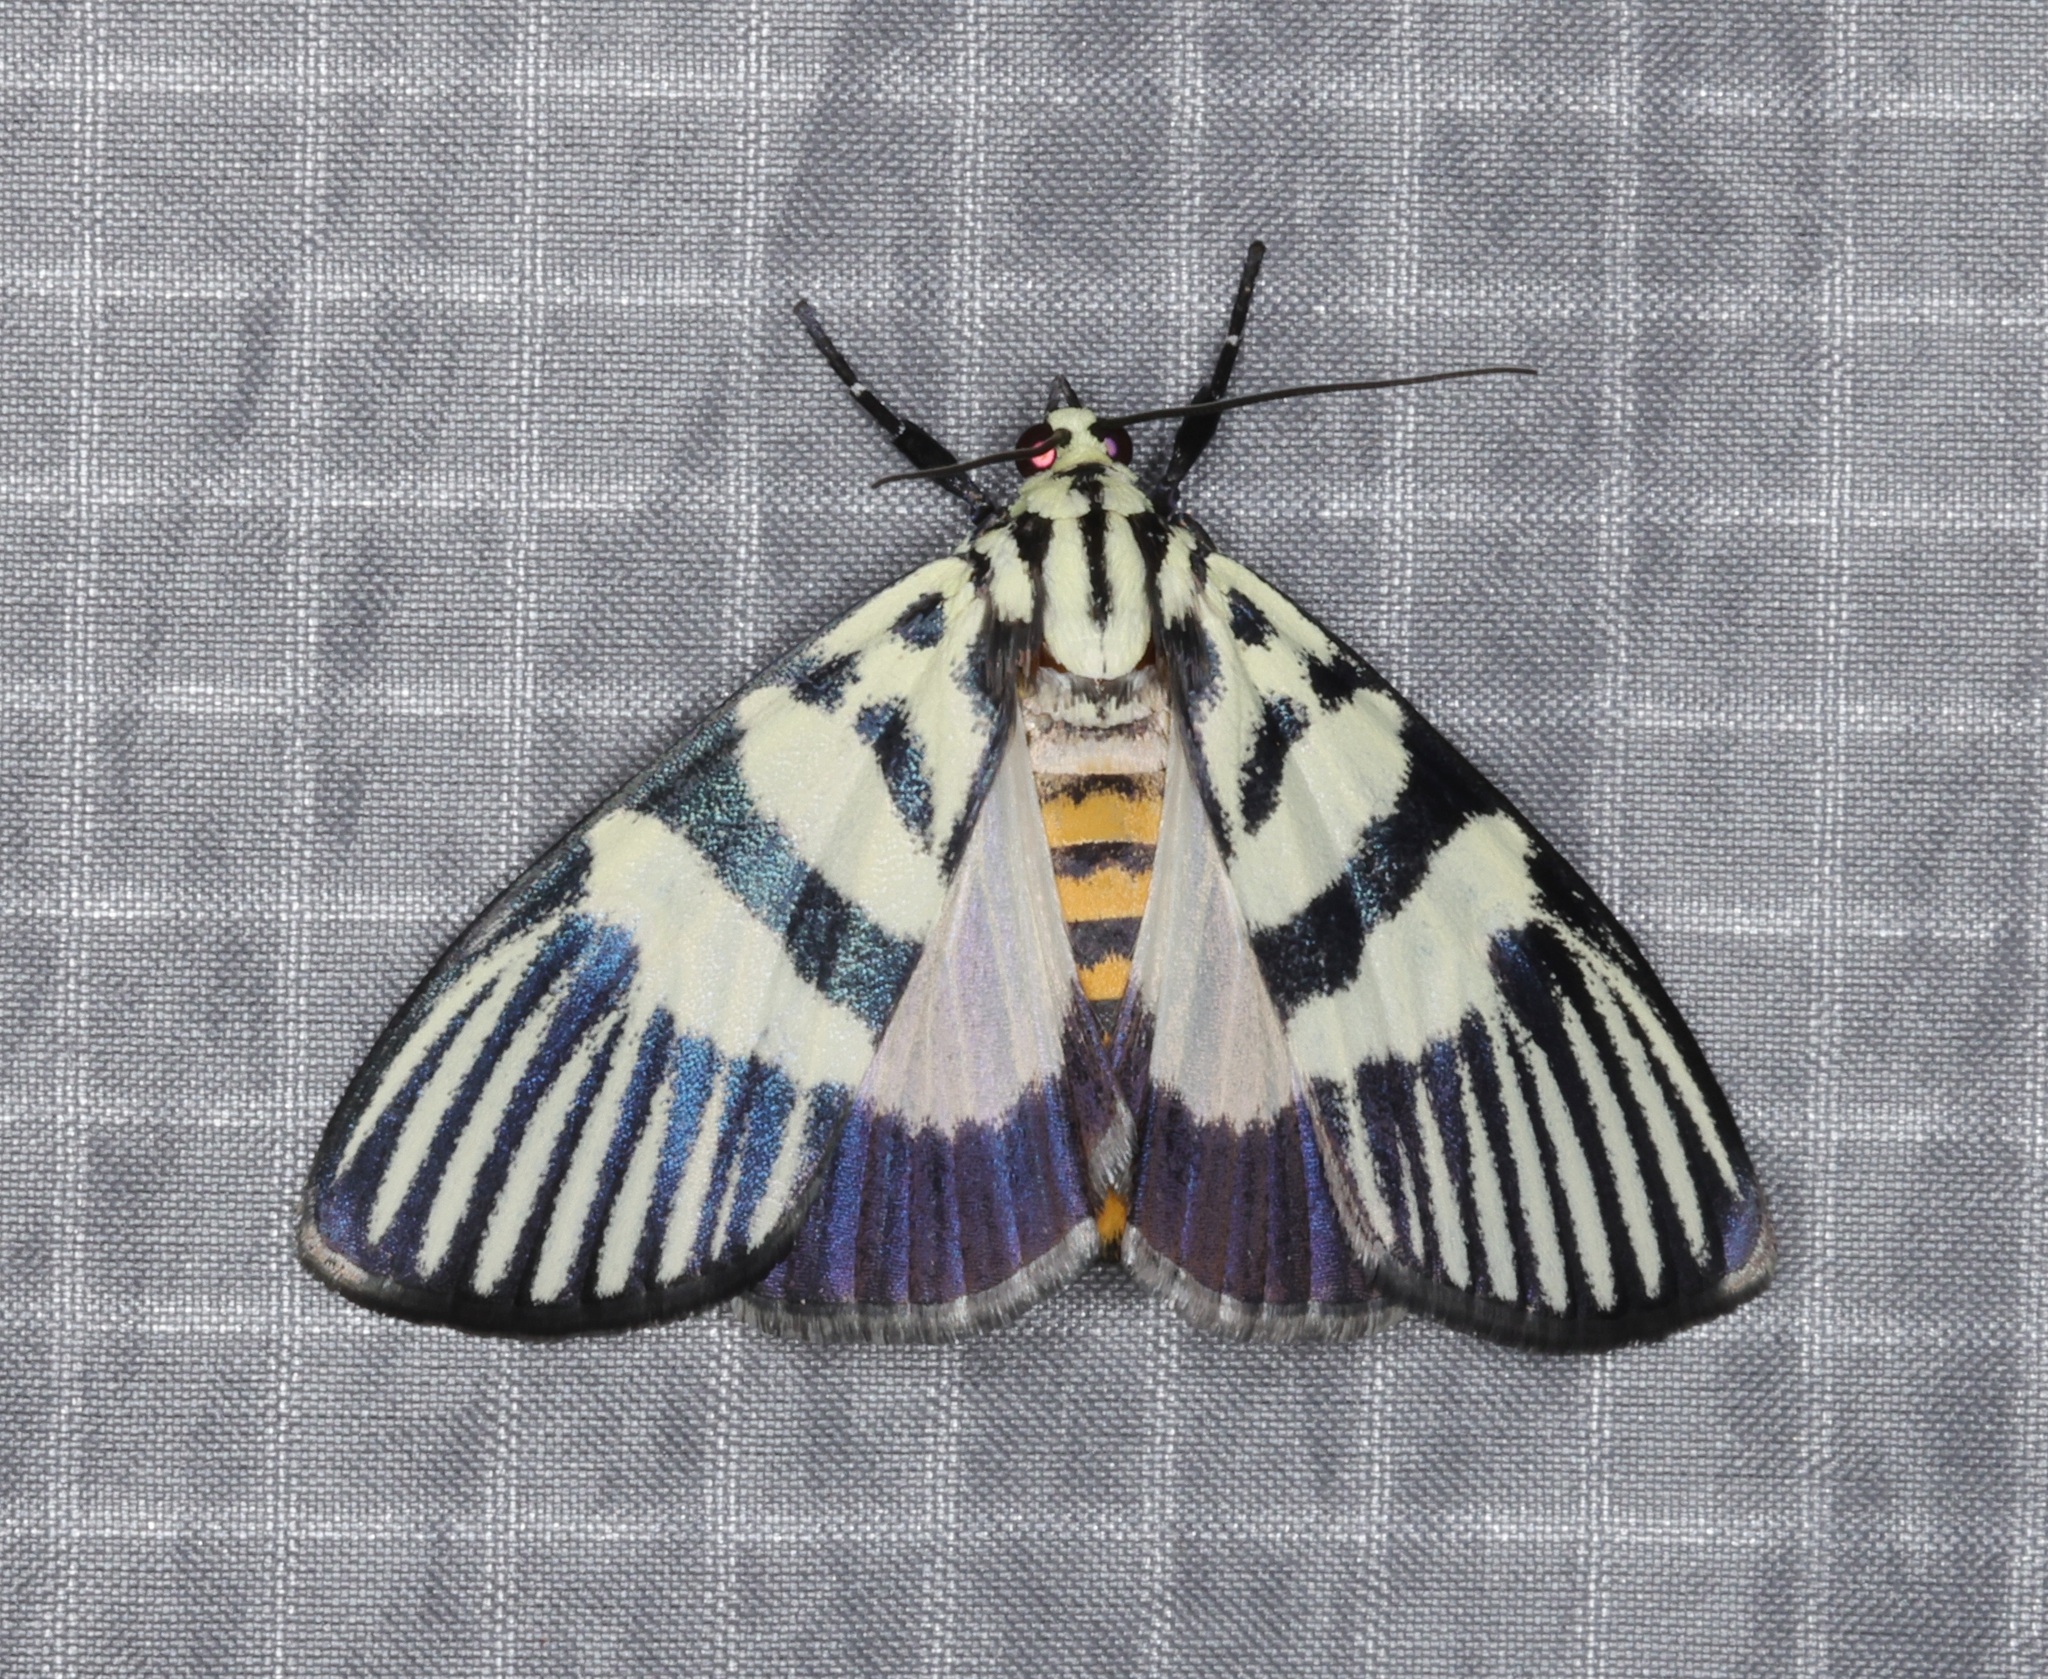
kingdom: Animalia
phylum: Arthropoda
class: Insecta
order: Lepidoptera
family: Crambidae
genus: Heortia
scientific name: Heortia vitessoides
